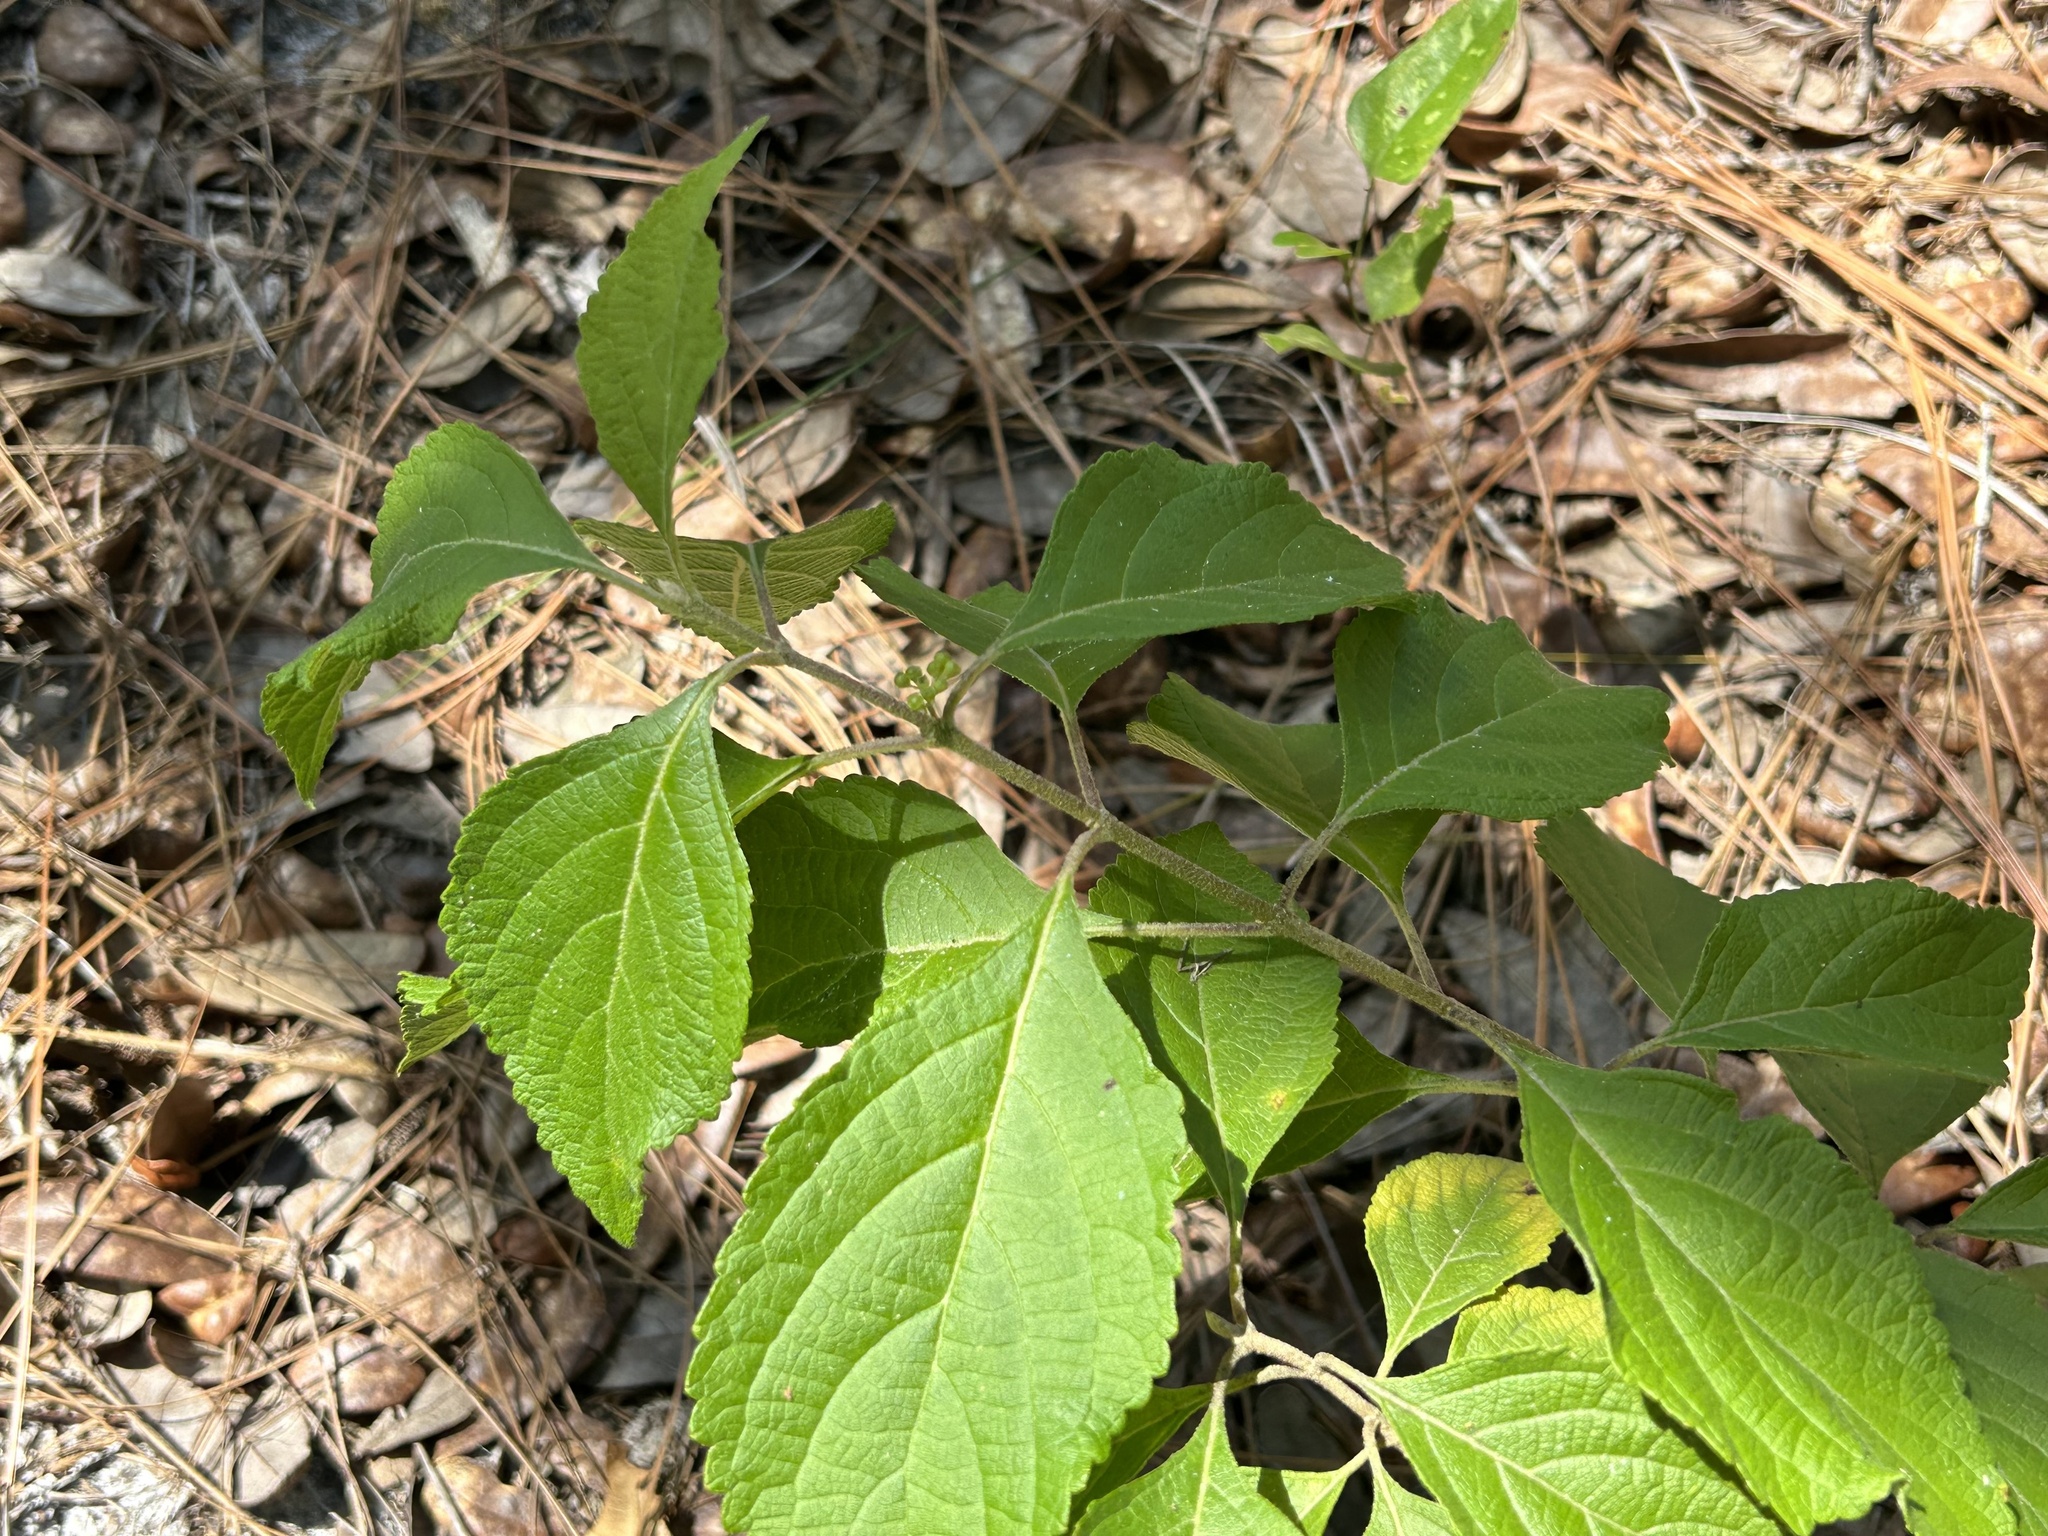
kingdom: Plantae
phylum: Tracheophyta
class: Magnoliopsida
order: Lamiales
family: Lamiaceae
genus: Callicarpa
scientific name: Callicarpa americana
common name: American beautyberry
